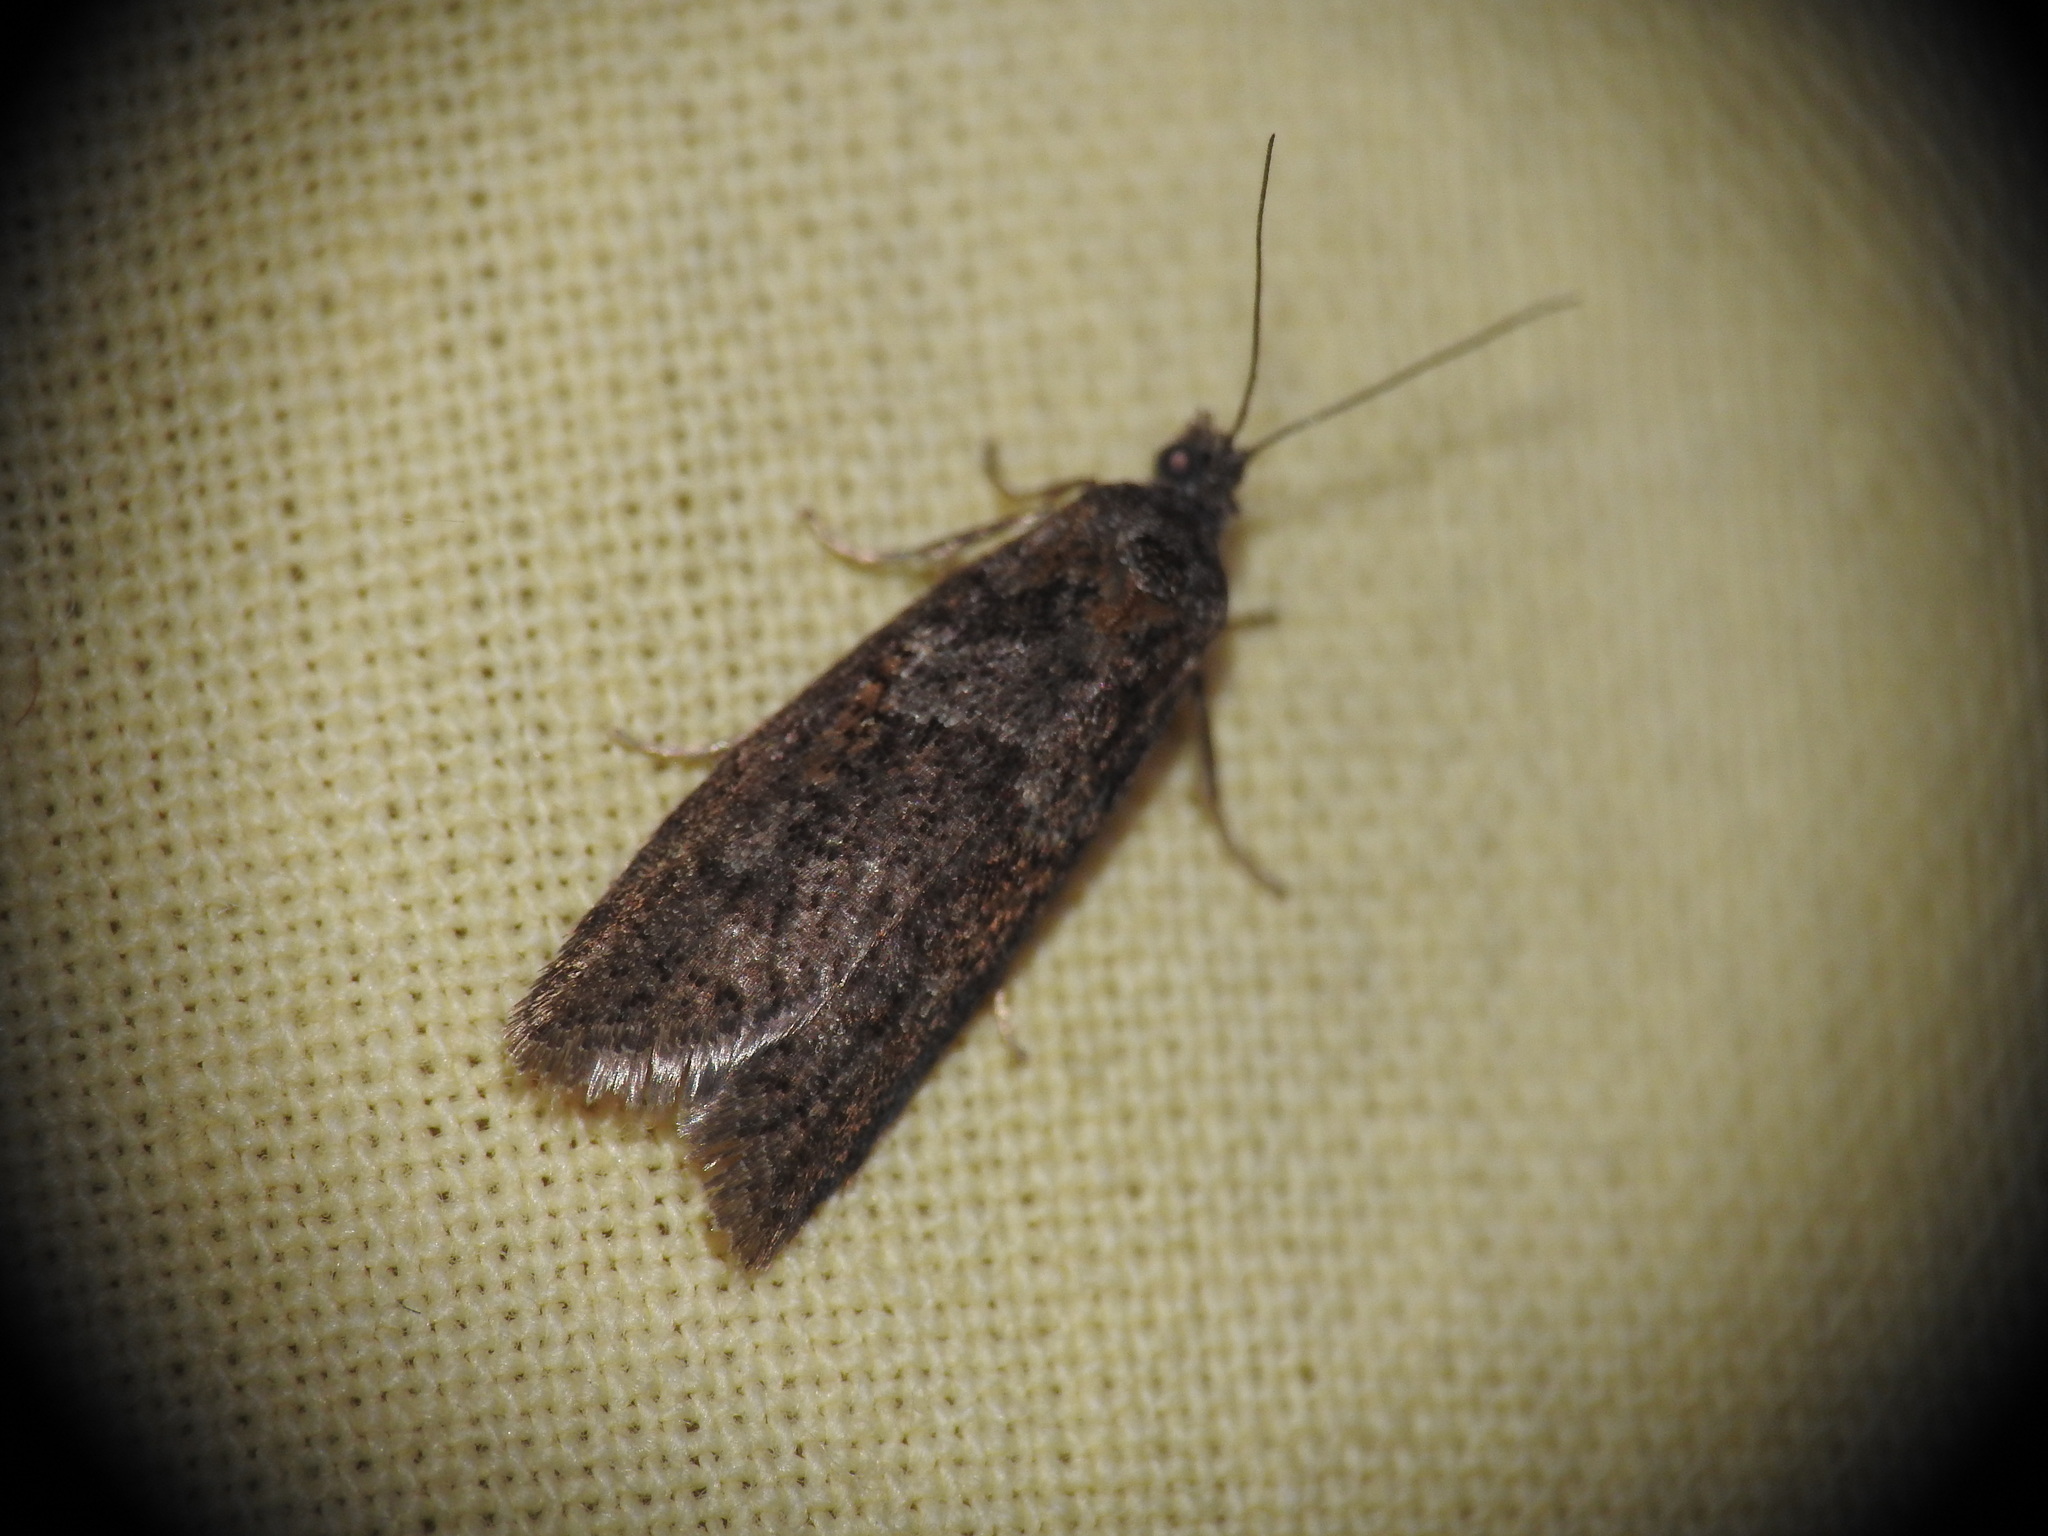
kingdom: Animalia
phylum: Arthropoda
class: Insecta
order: Lepidoptera
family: Tortricidae
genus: Tortricodes
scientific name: Tortricodes alternella
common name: Winter shade
